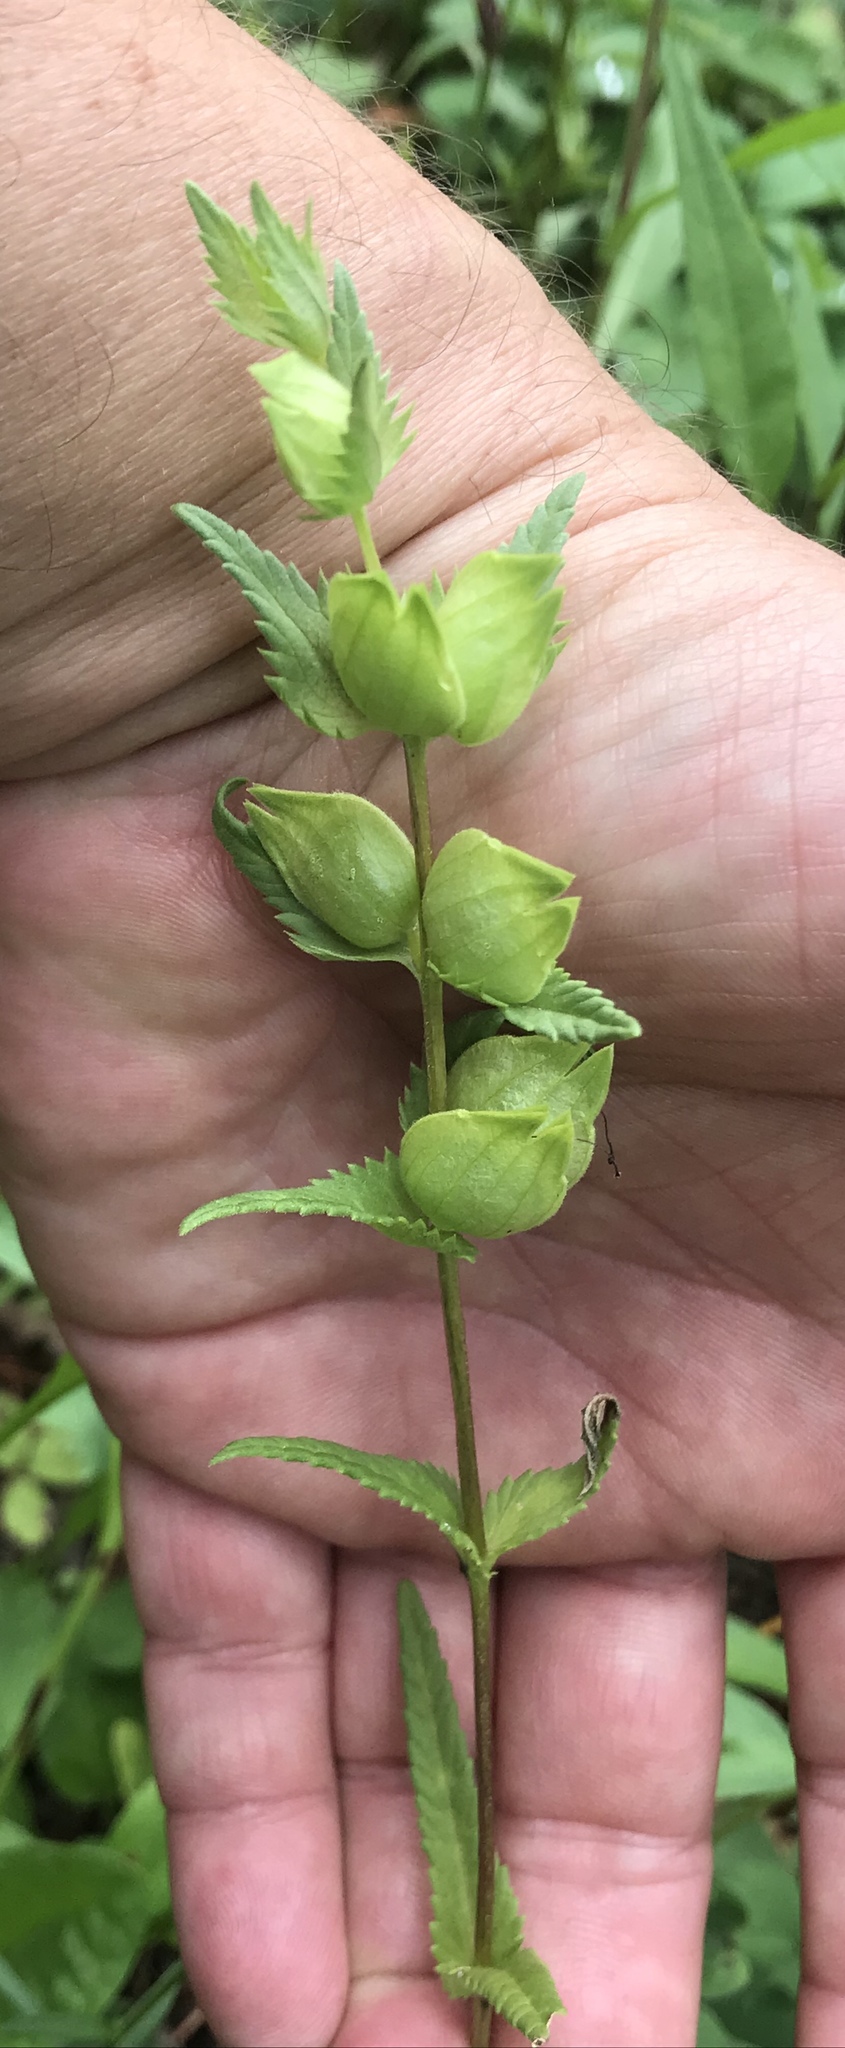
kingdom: Plantae
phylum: Tracheophyta
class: Magnoliopsida
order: Lamiales
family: Orobanchaceae
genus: Rhinanthus
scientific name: Rhinanthus minor
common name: Yellow-rattle
